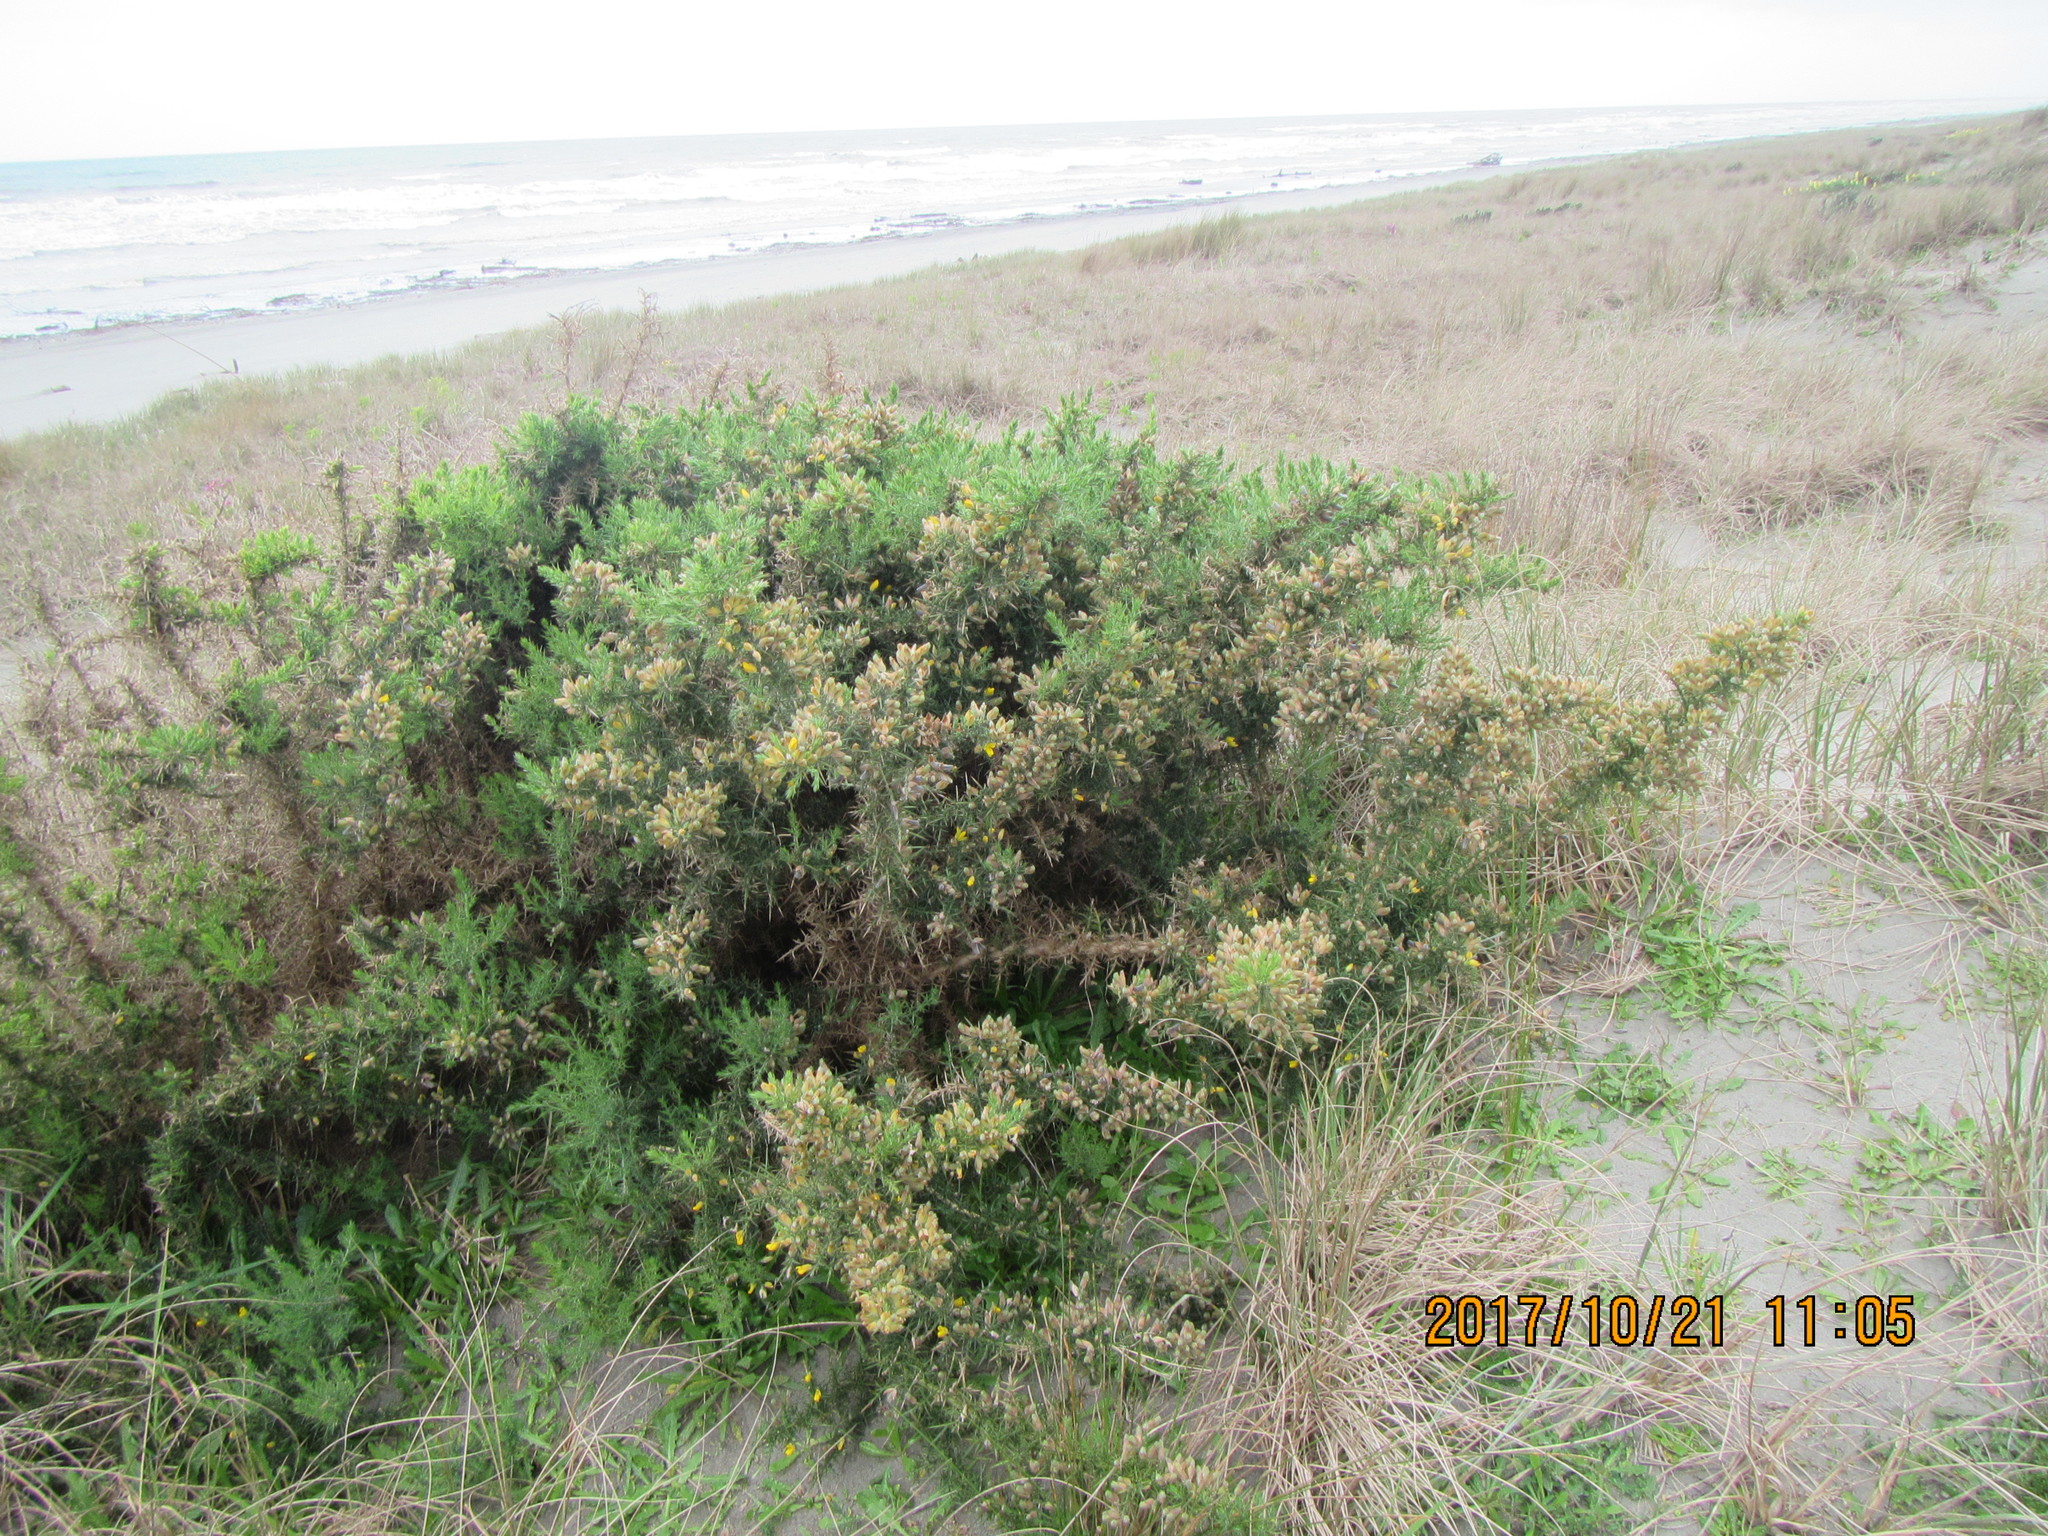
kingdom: Plantae
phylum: Tracheophyta
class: Magnoliopsida
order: Fabales
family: Fabaceae
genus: Ulex
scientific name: Ulex europaeus
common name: Common gorse
